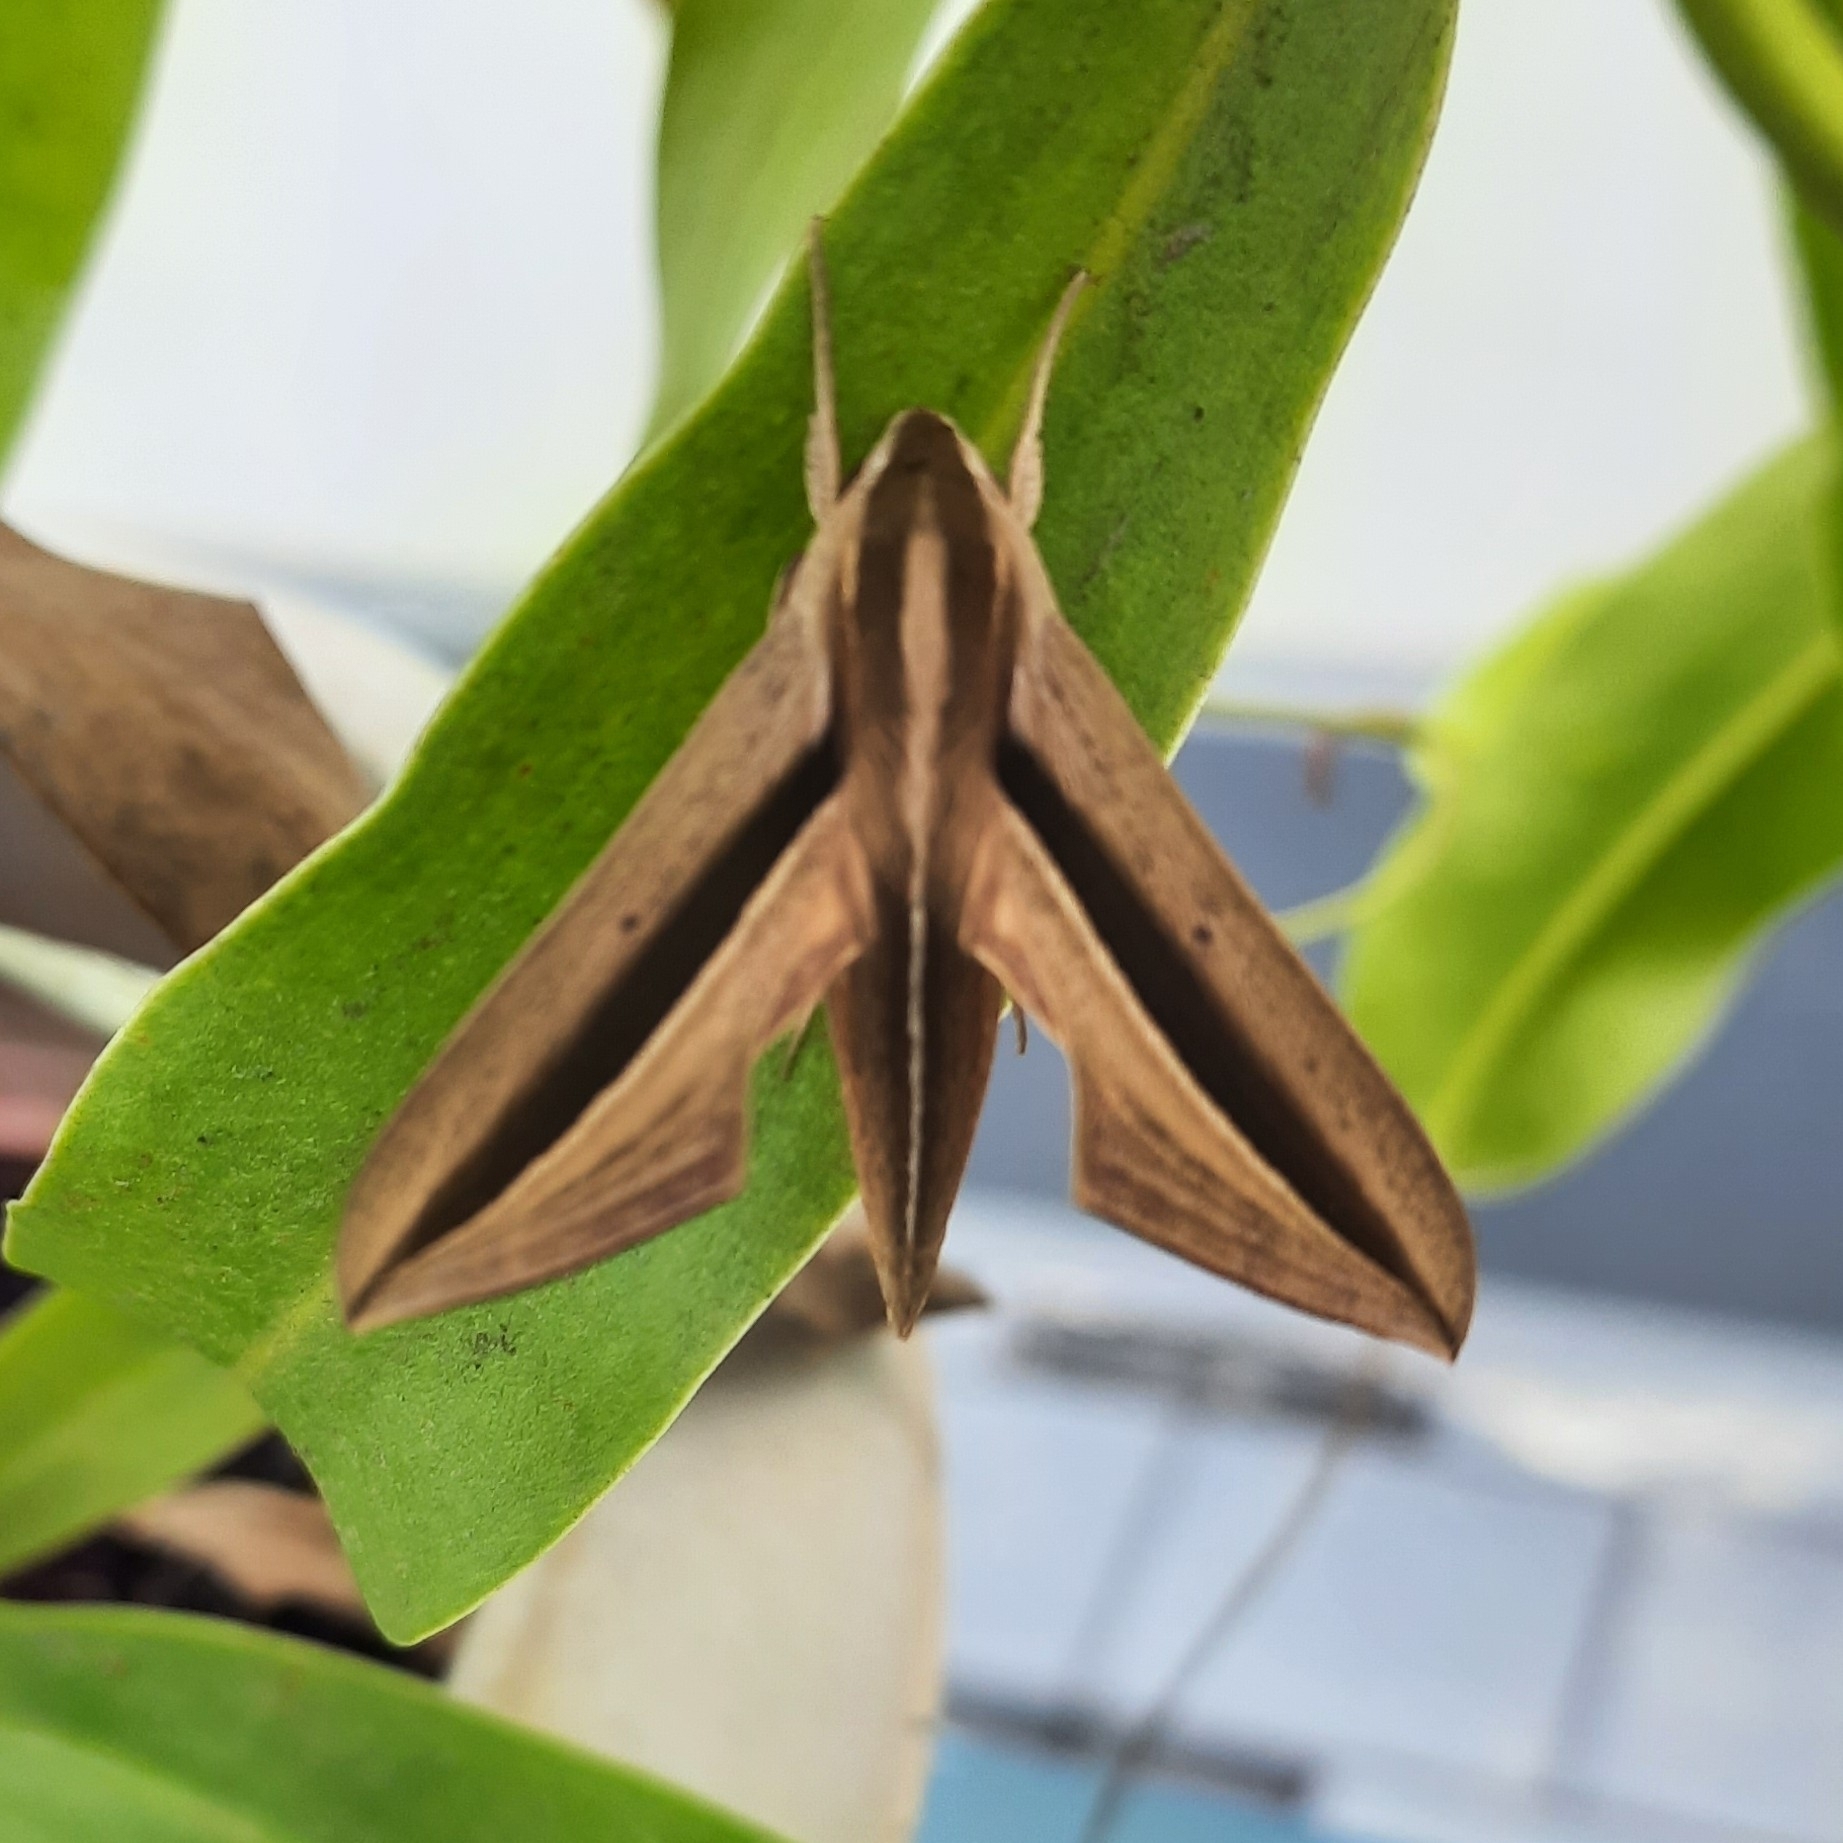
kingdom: Animalia
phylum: Arthropoda
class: Insecta
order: Lepidoptera
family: Sphingidae
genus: Theretra
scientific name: Theretra silhetensis
